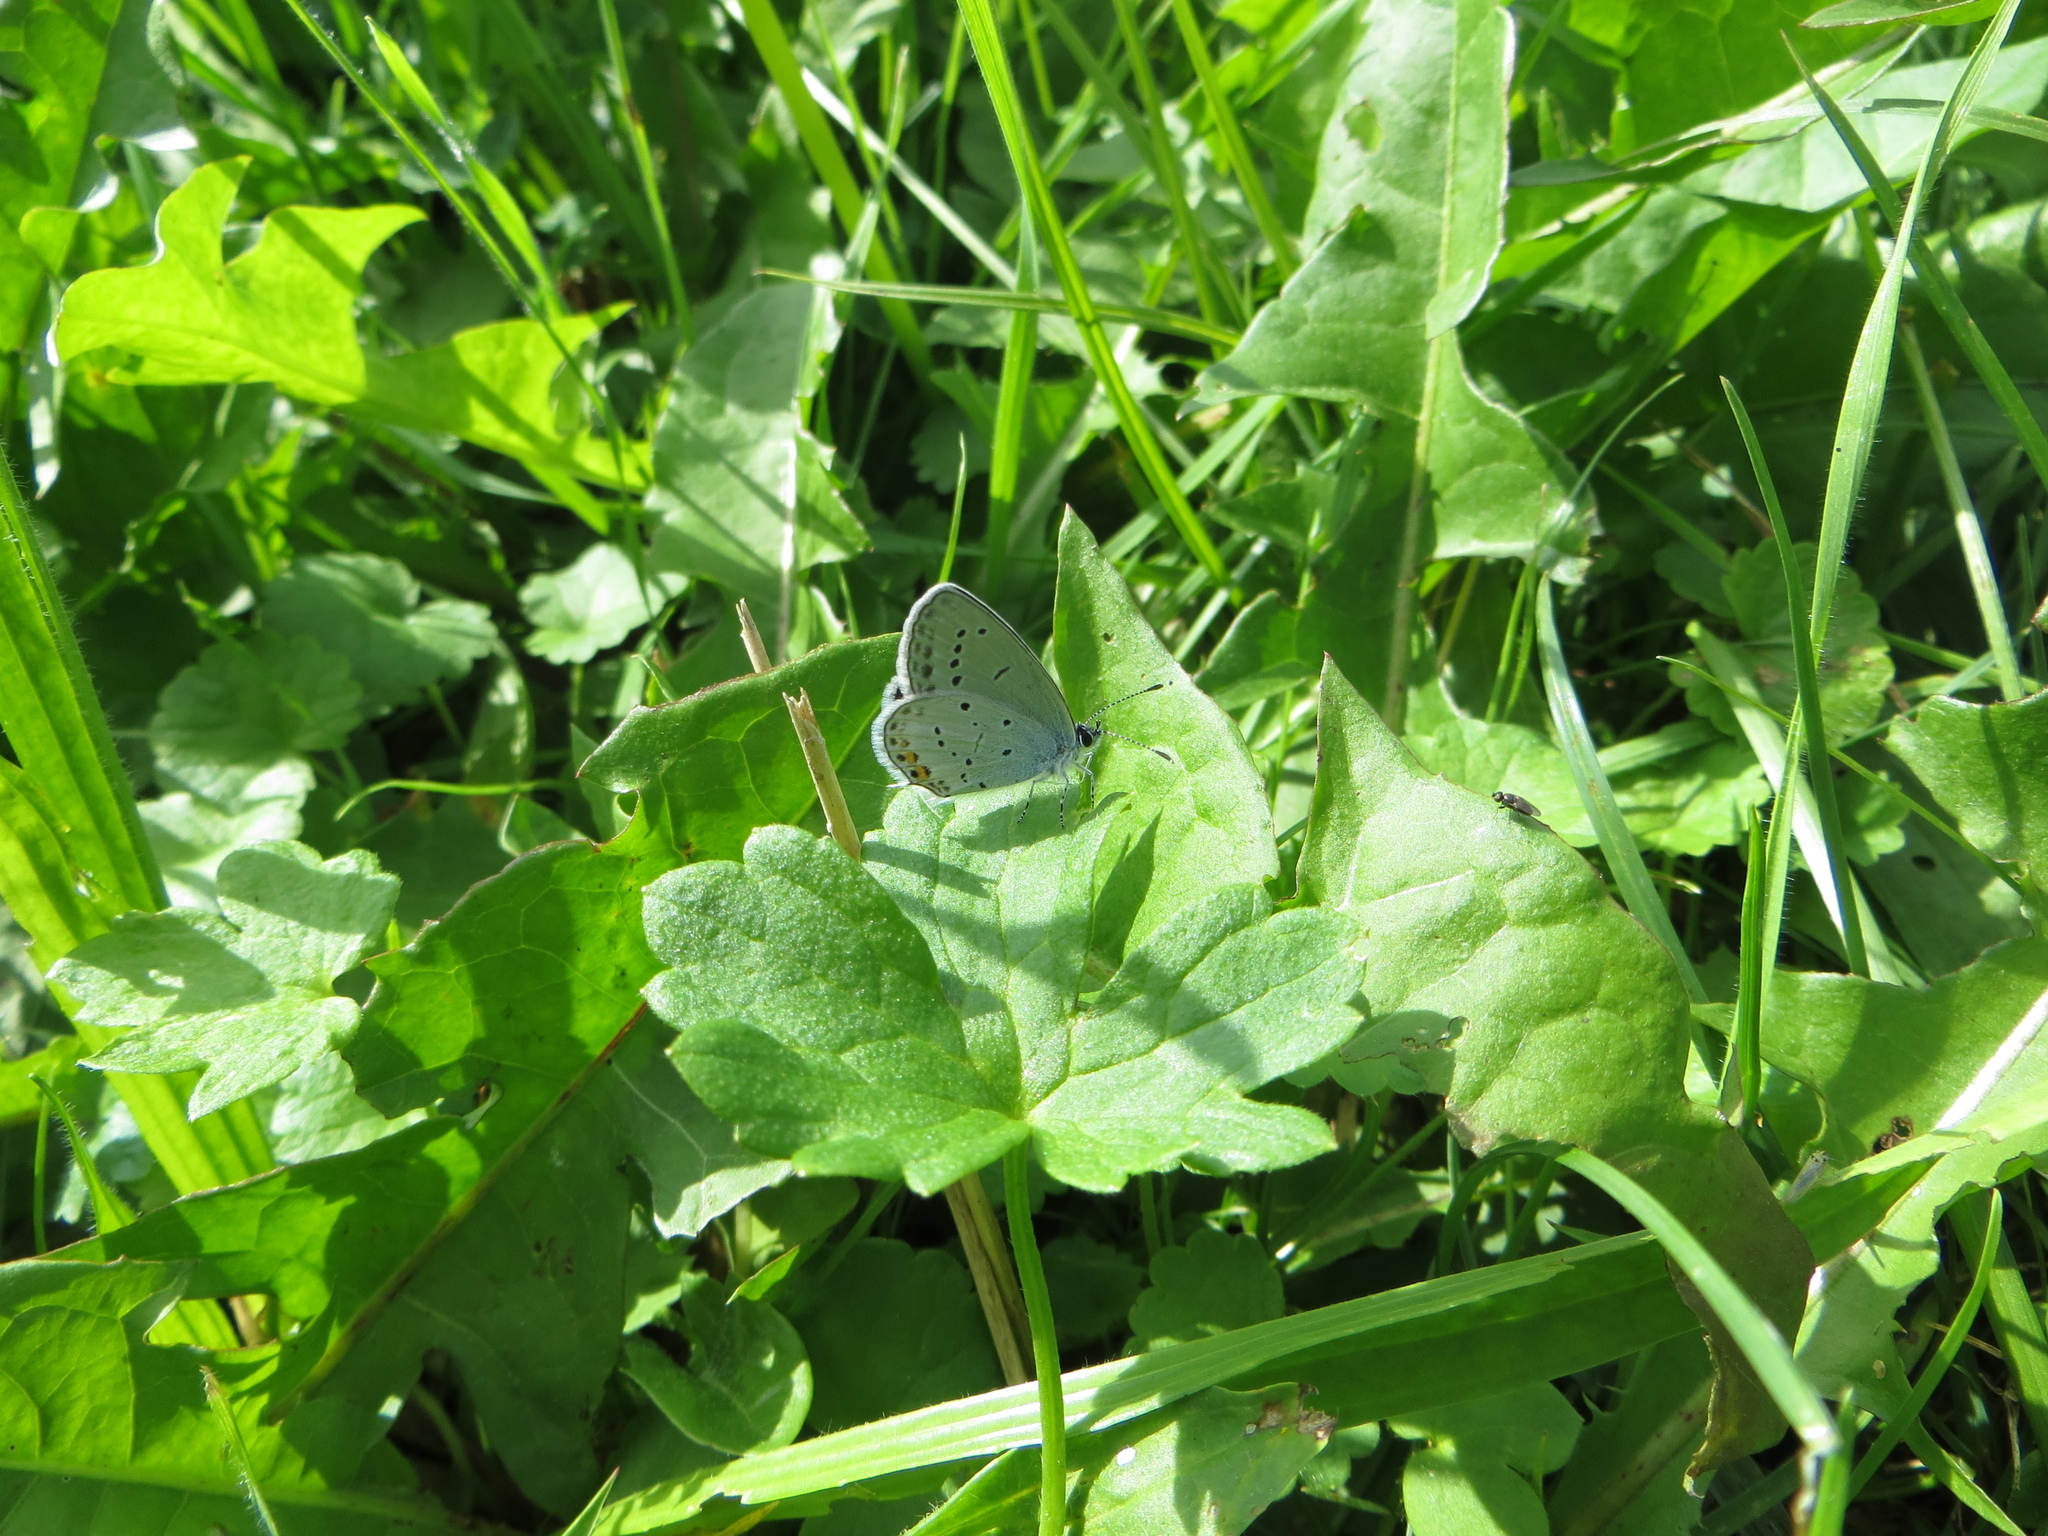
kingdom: Animalia
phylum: Arthropoda
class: Insecta
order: Lepidoptera
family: Lycaenidae
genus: Elkalyce
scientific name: Elkalyce argiades
